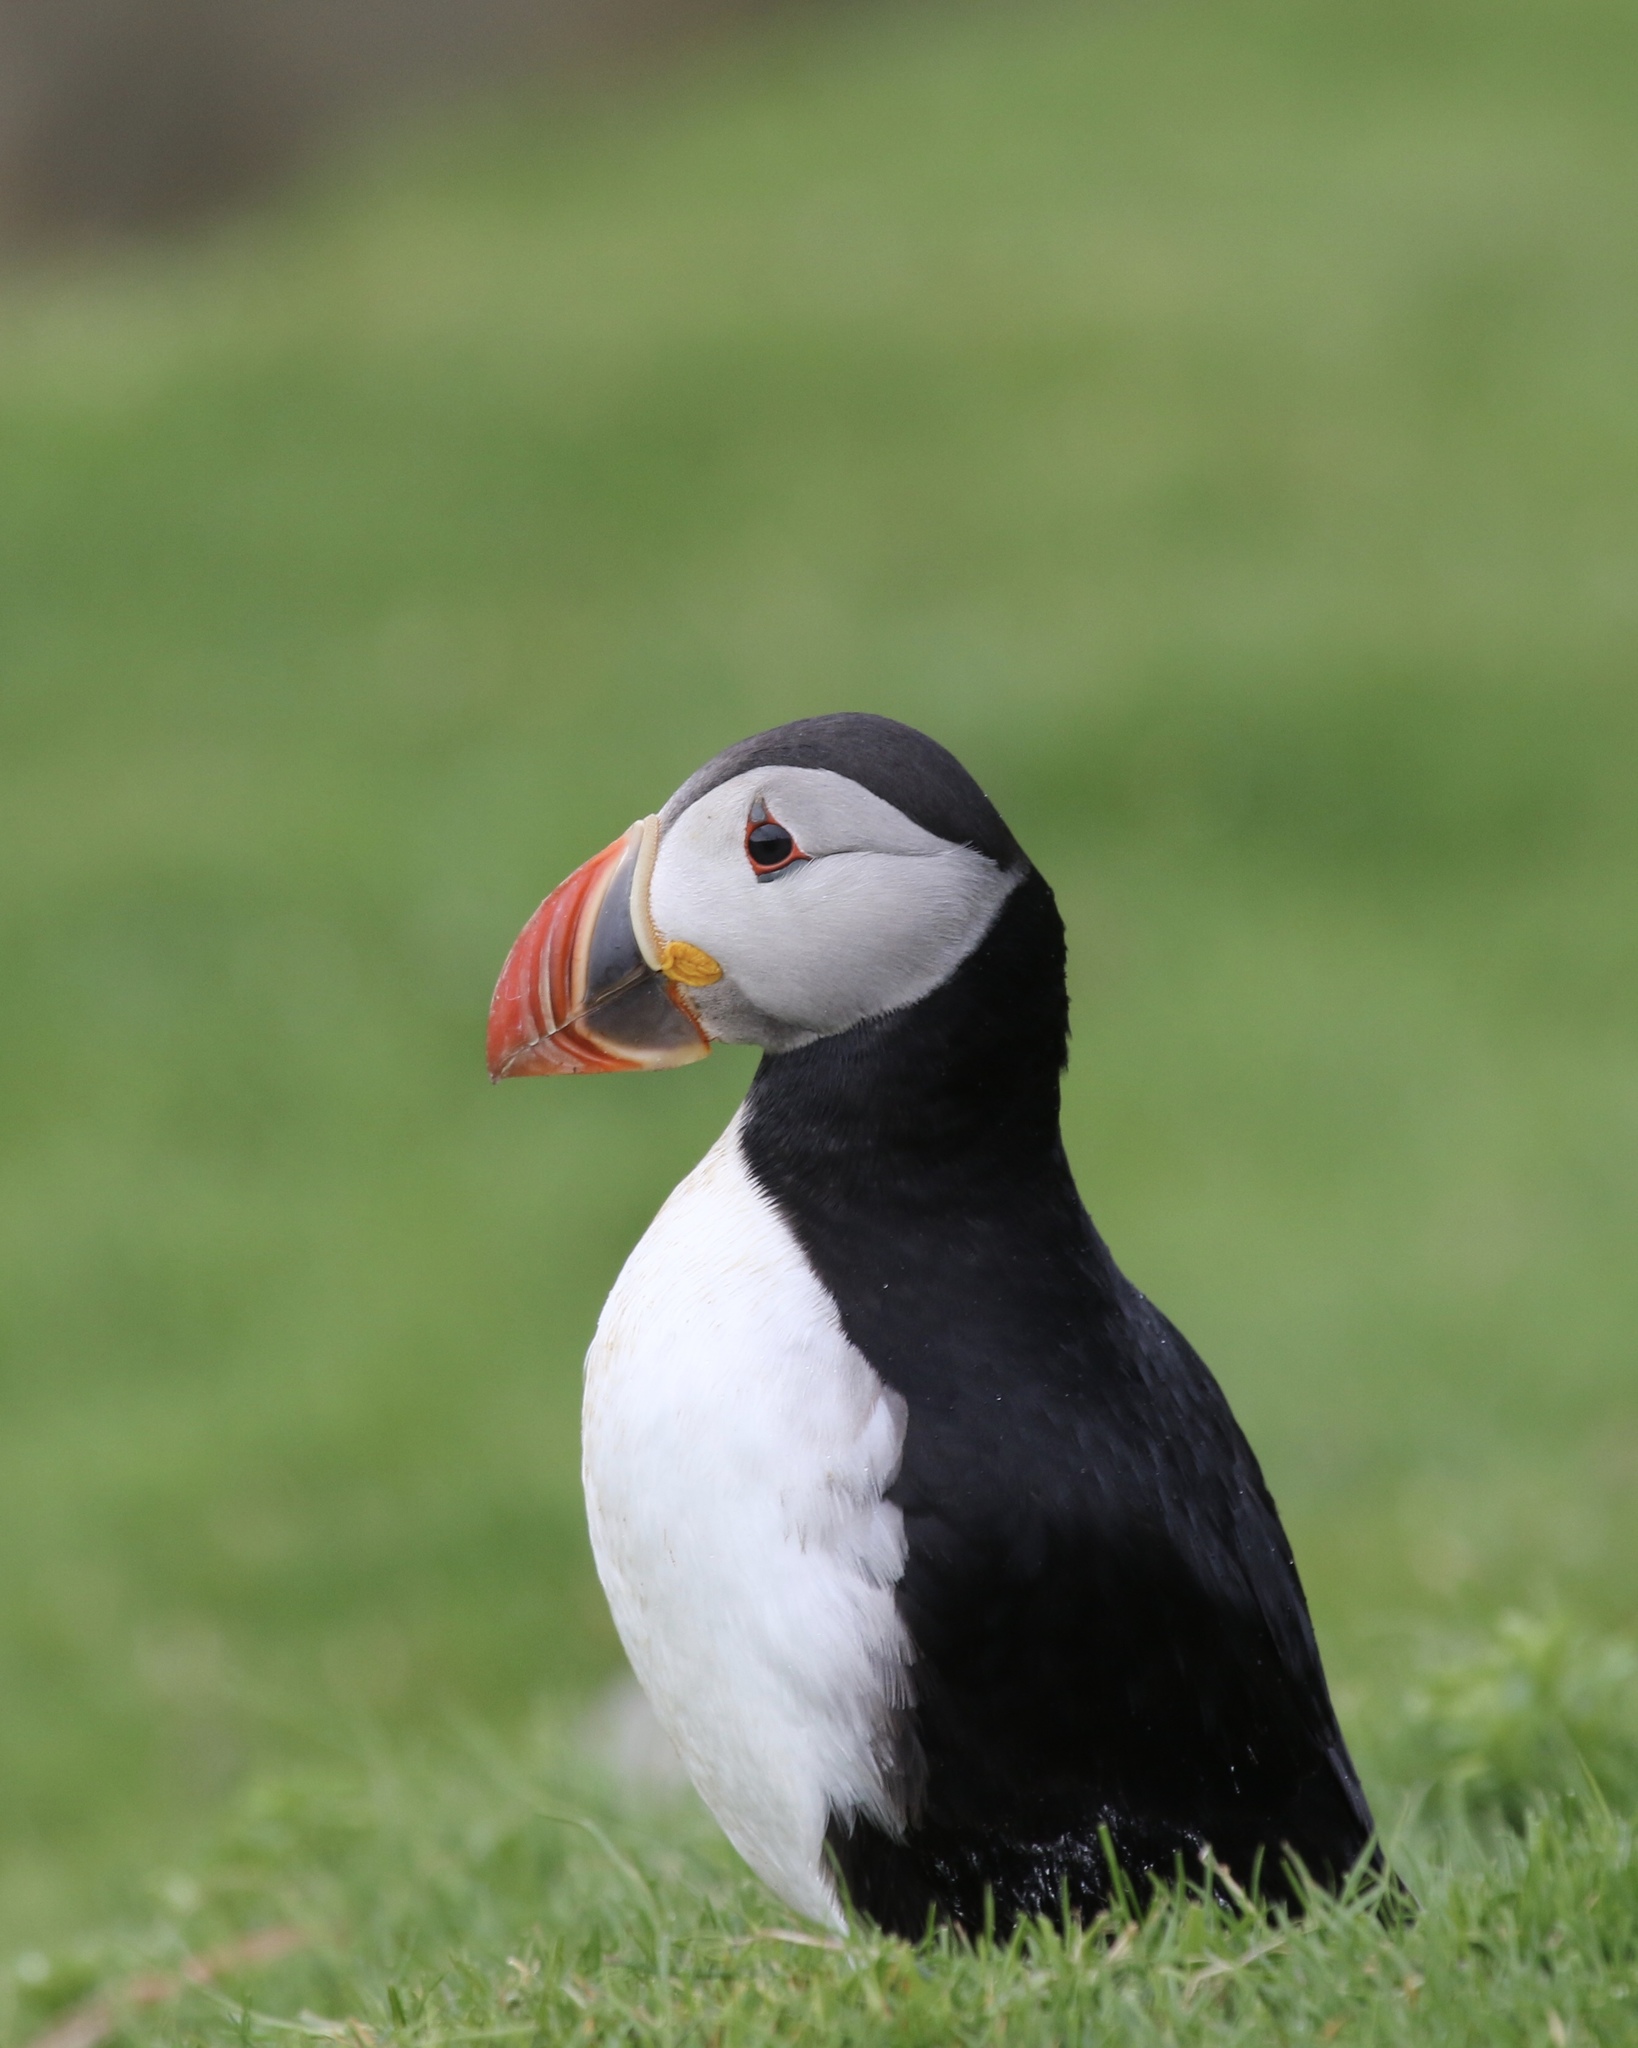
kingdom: Animalia
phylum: Chordata
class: Aves
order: Charadriiformes
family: Alcidae
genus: Fratercula
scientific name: Fratercula arctica
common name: Atlantic puffin
